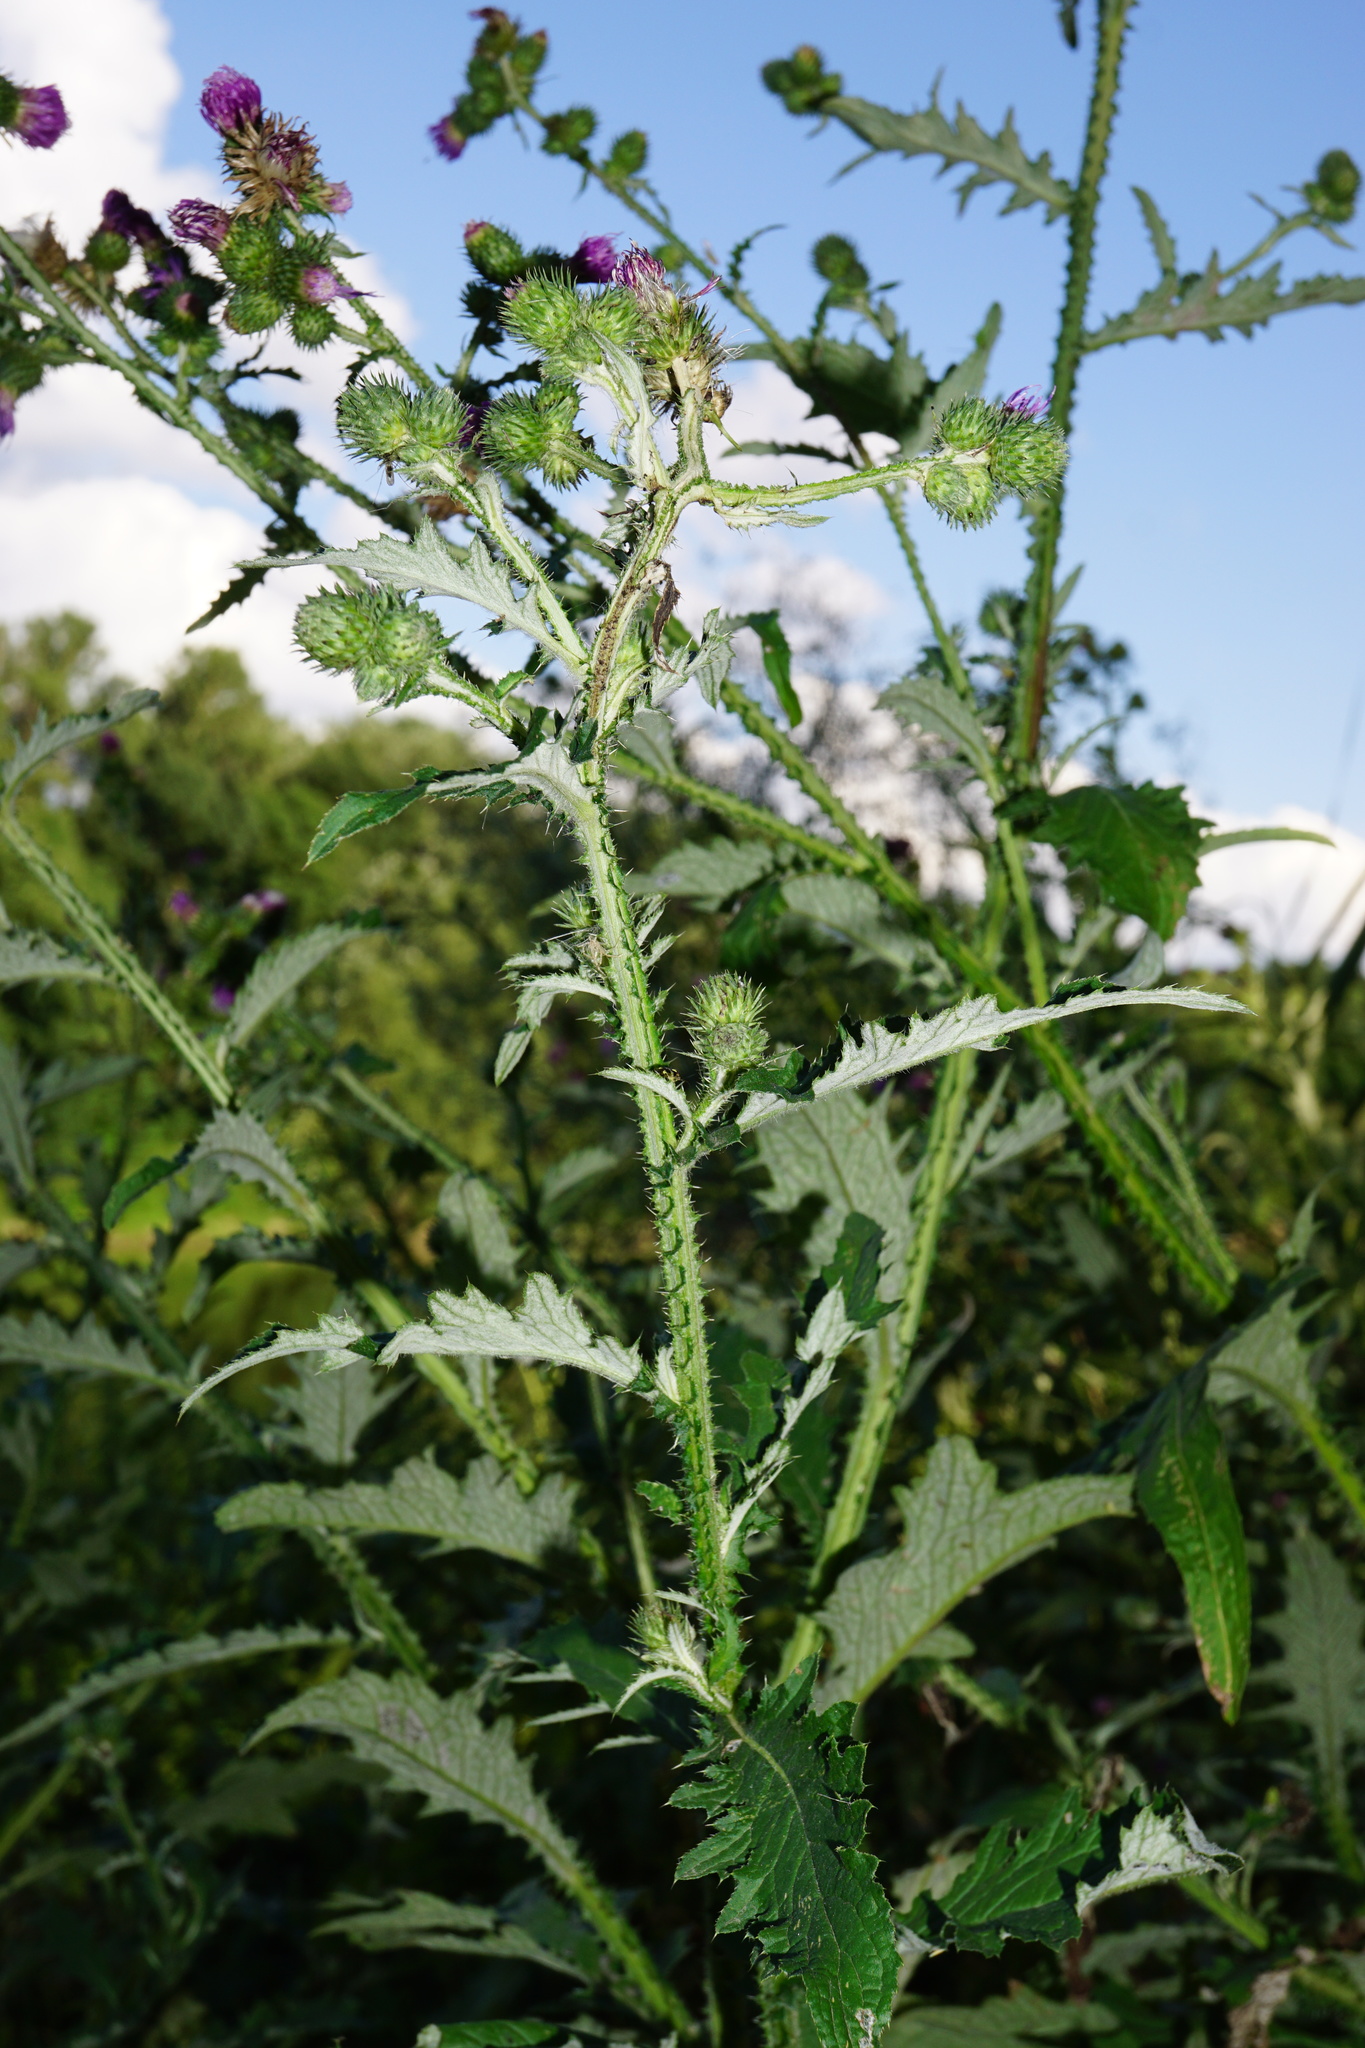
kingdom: Plantae
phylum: Tracheophyta
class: Magnoliopsida
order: Asterales
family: Asteraceae
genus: Carduus
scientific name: Carduus crispus
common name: Welted thistle
